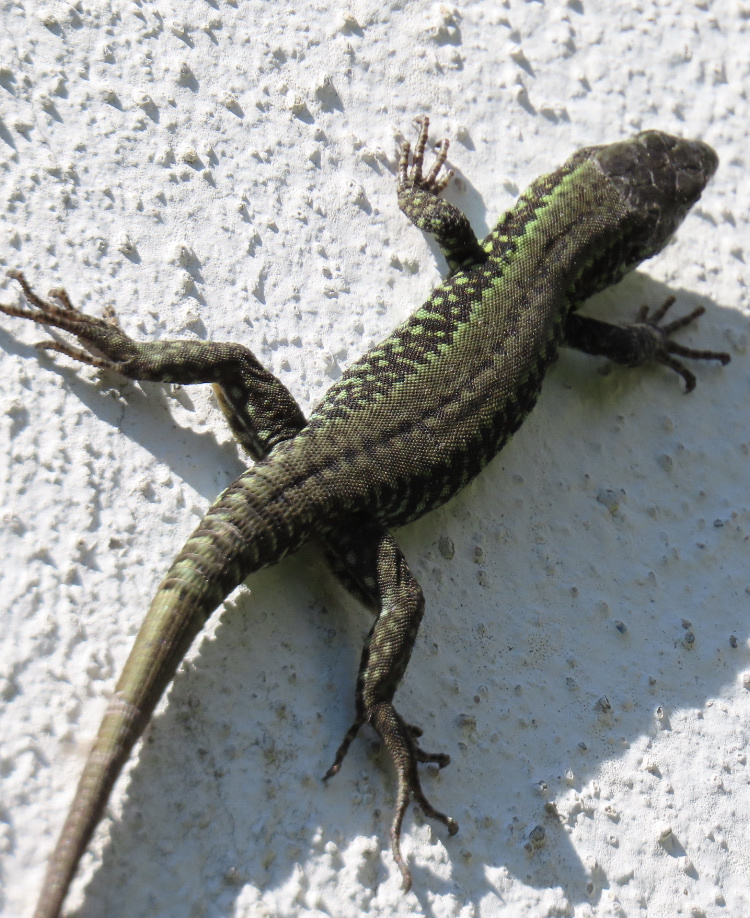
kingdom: Animalia
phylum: Chordata
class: Squamata
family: Lacertidae
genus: Podarcis
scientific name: Podarcis muralis
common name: Common wall lizard
